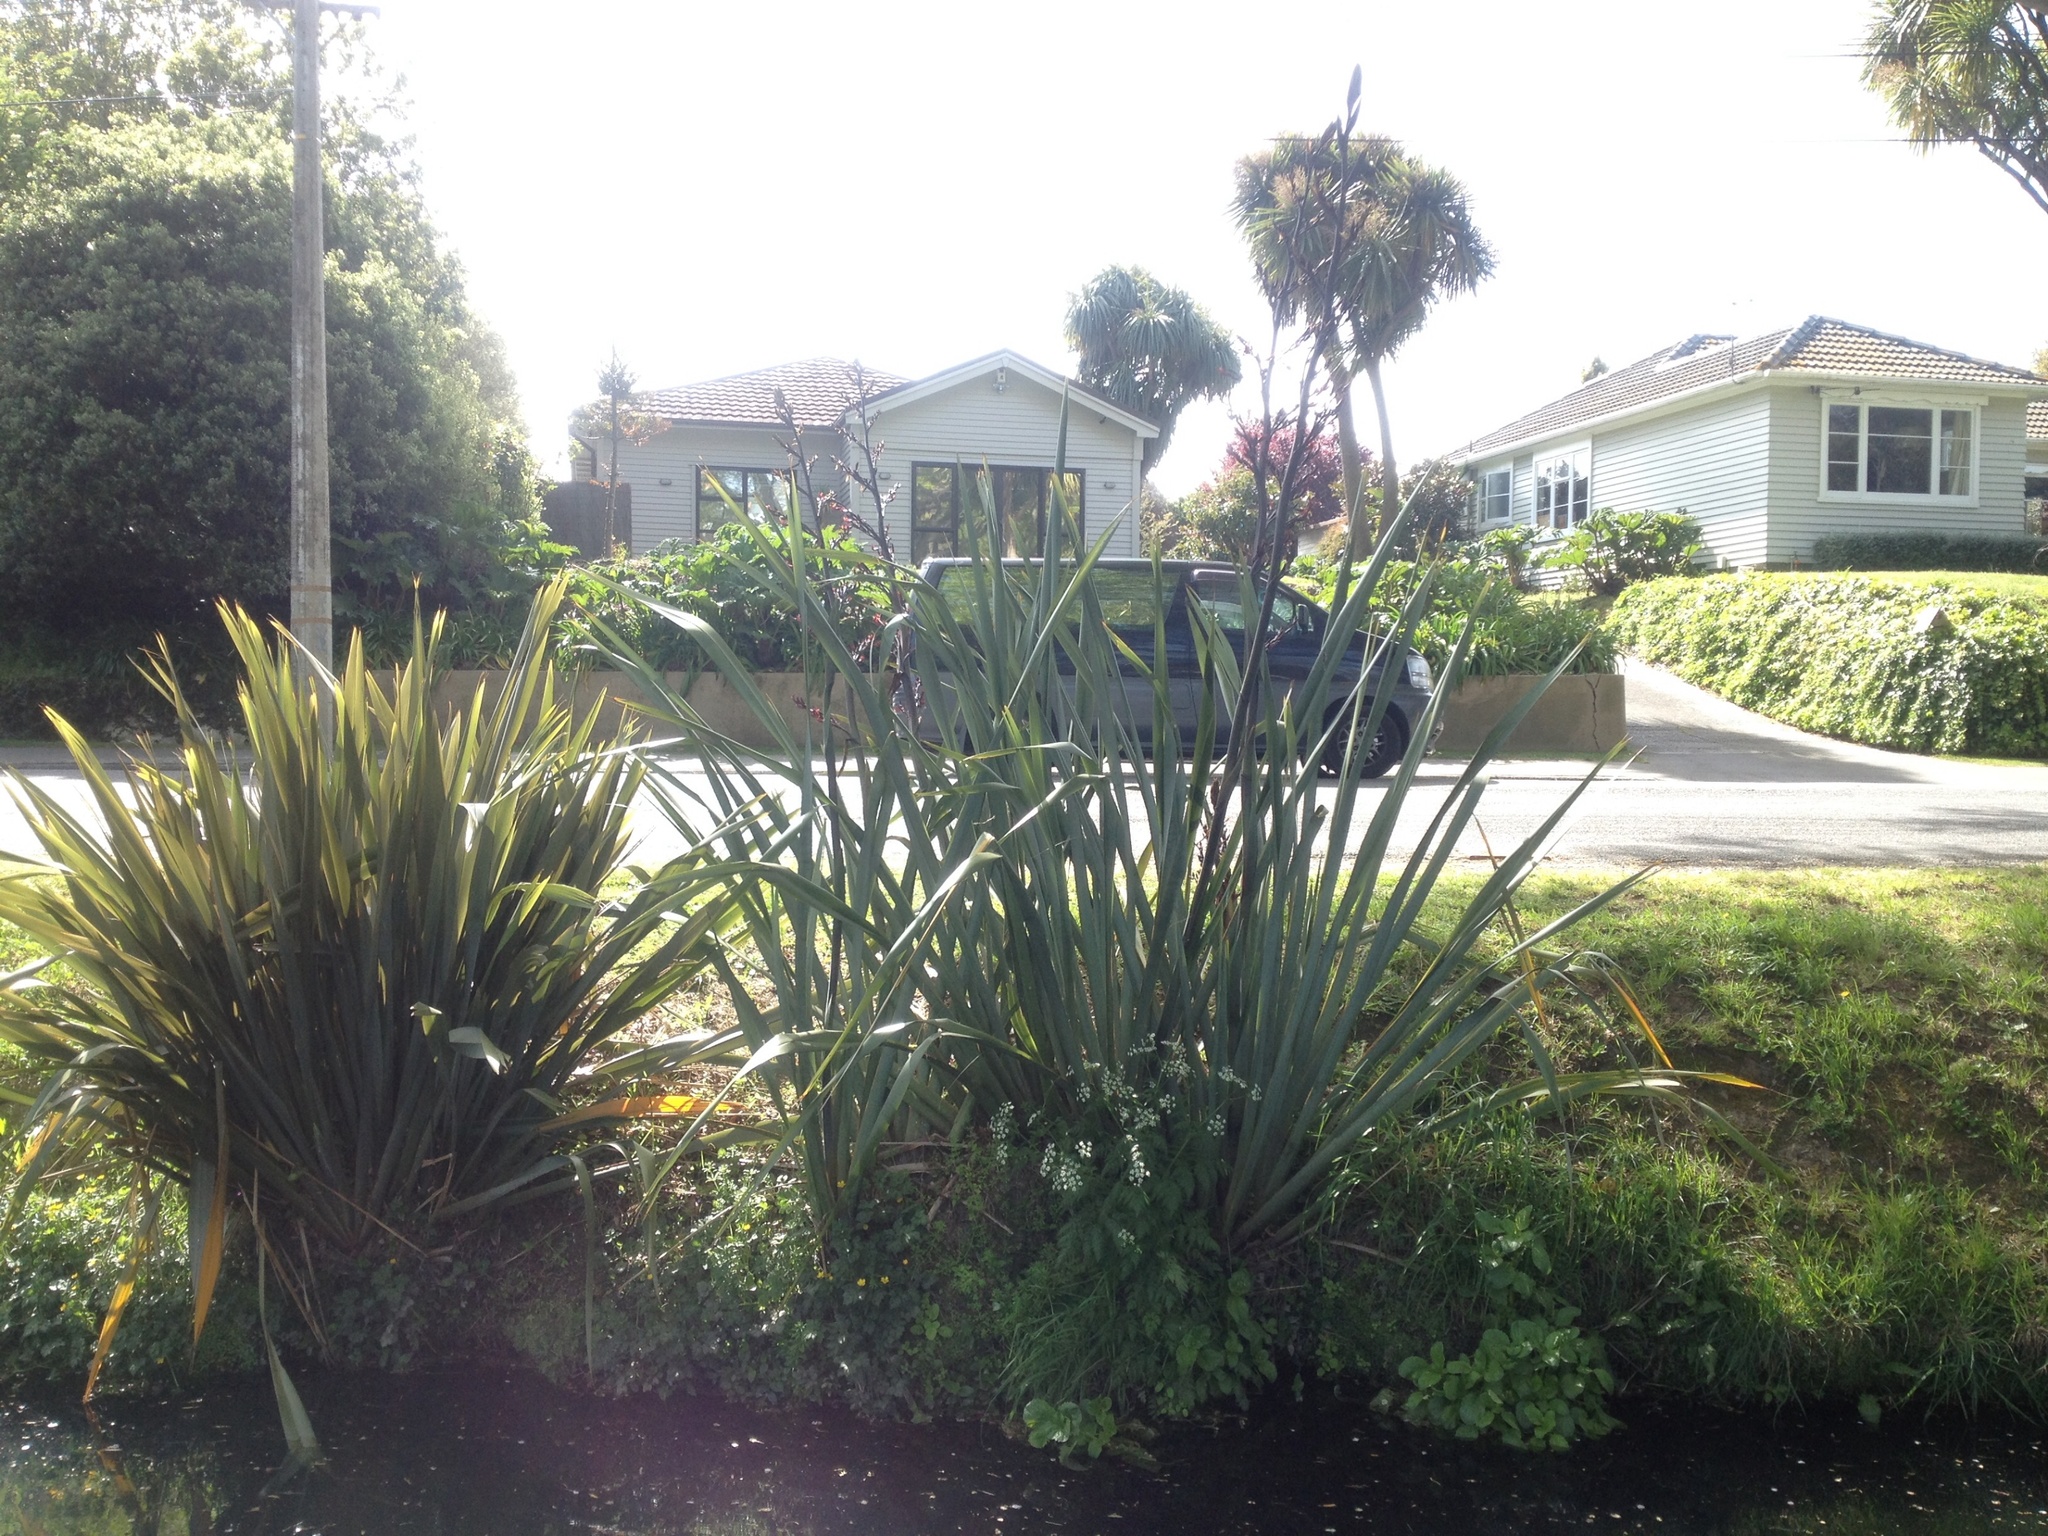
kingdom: Plantae
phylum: Tracheophyta
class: Liliopsida
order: Asparagales
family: Asphodelaceae
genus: Phormium
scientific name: Phormium tenax
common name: New zealand flax
